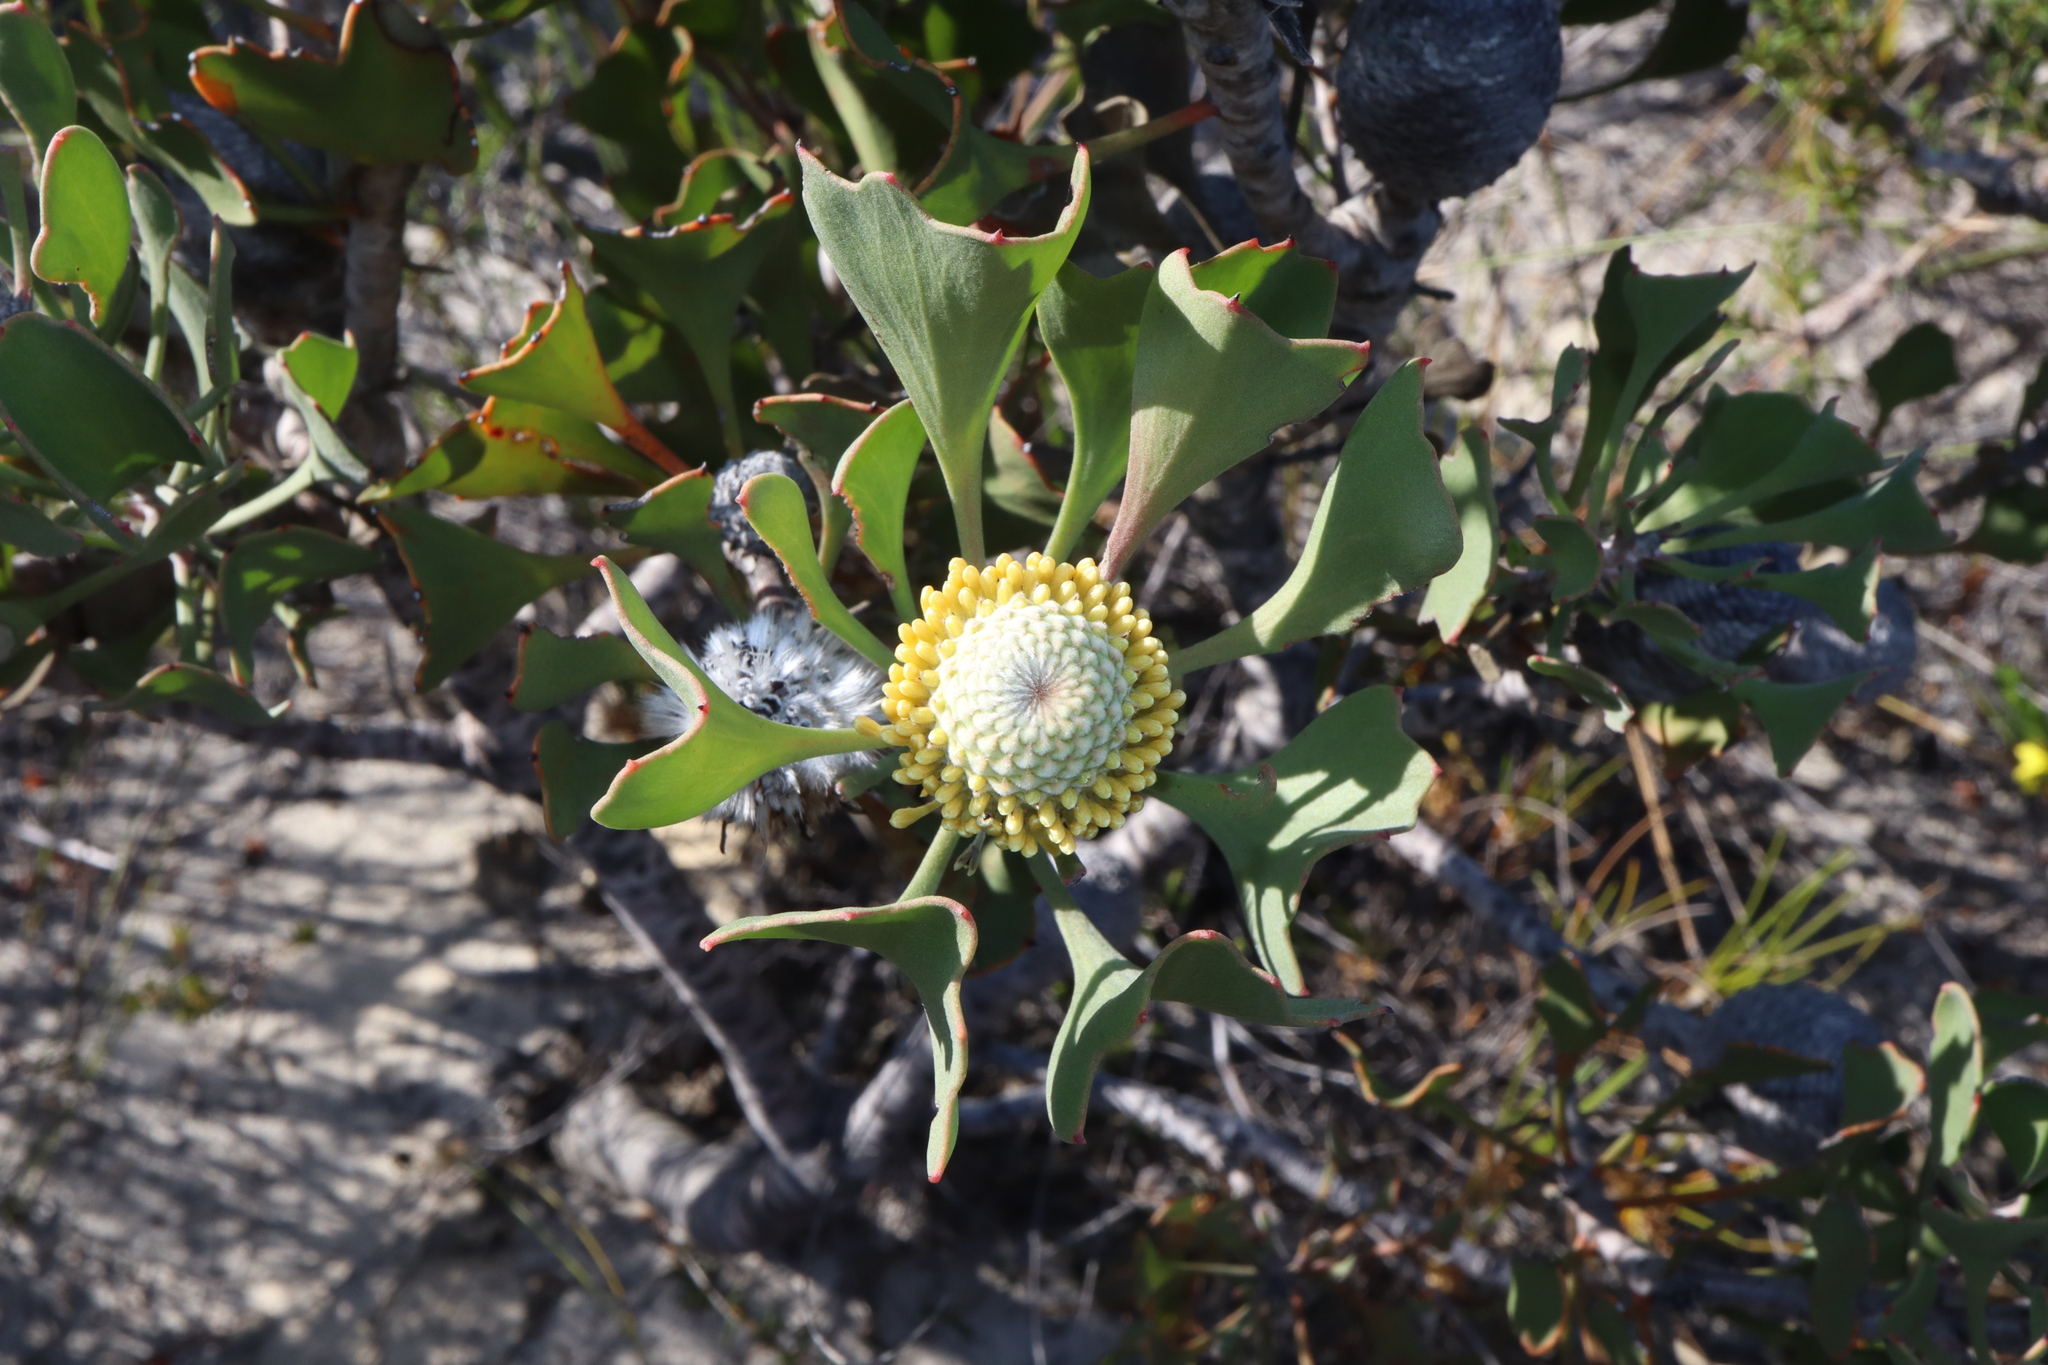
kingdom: Plantae
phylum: Tracheophyta
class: Magnoliopsida
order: Proteales
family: Proteaceae
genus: Isopogon
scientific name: Isopogon trilobus
